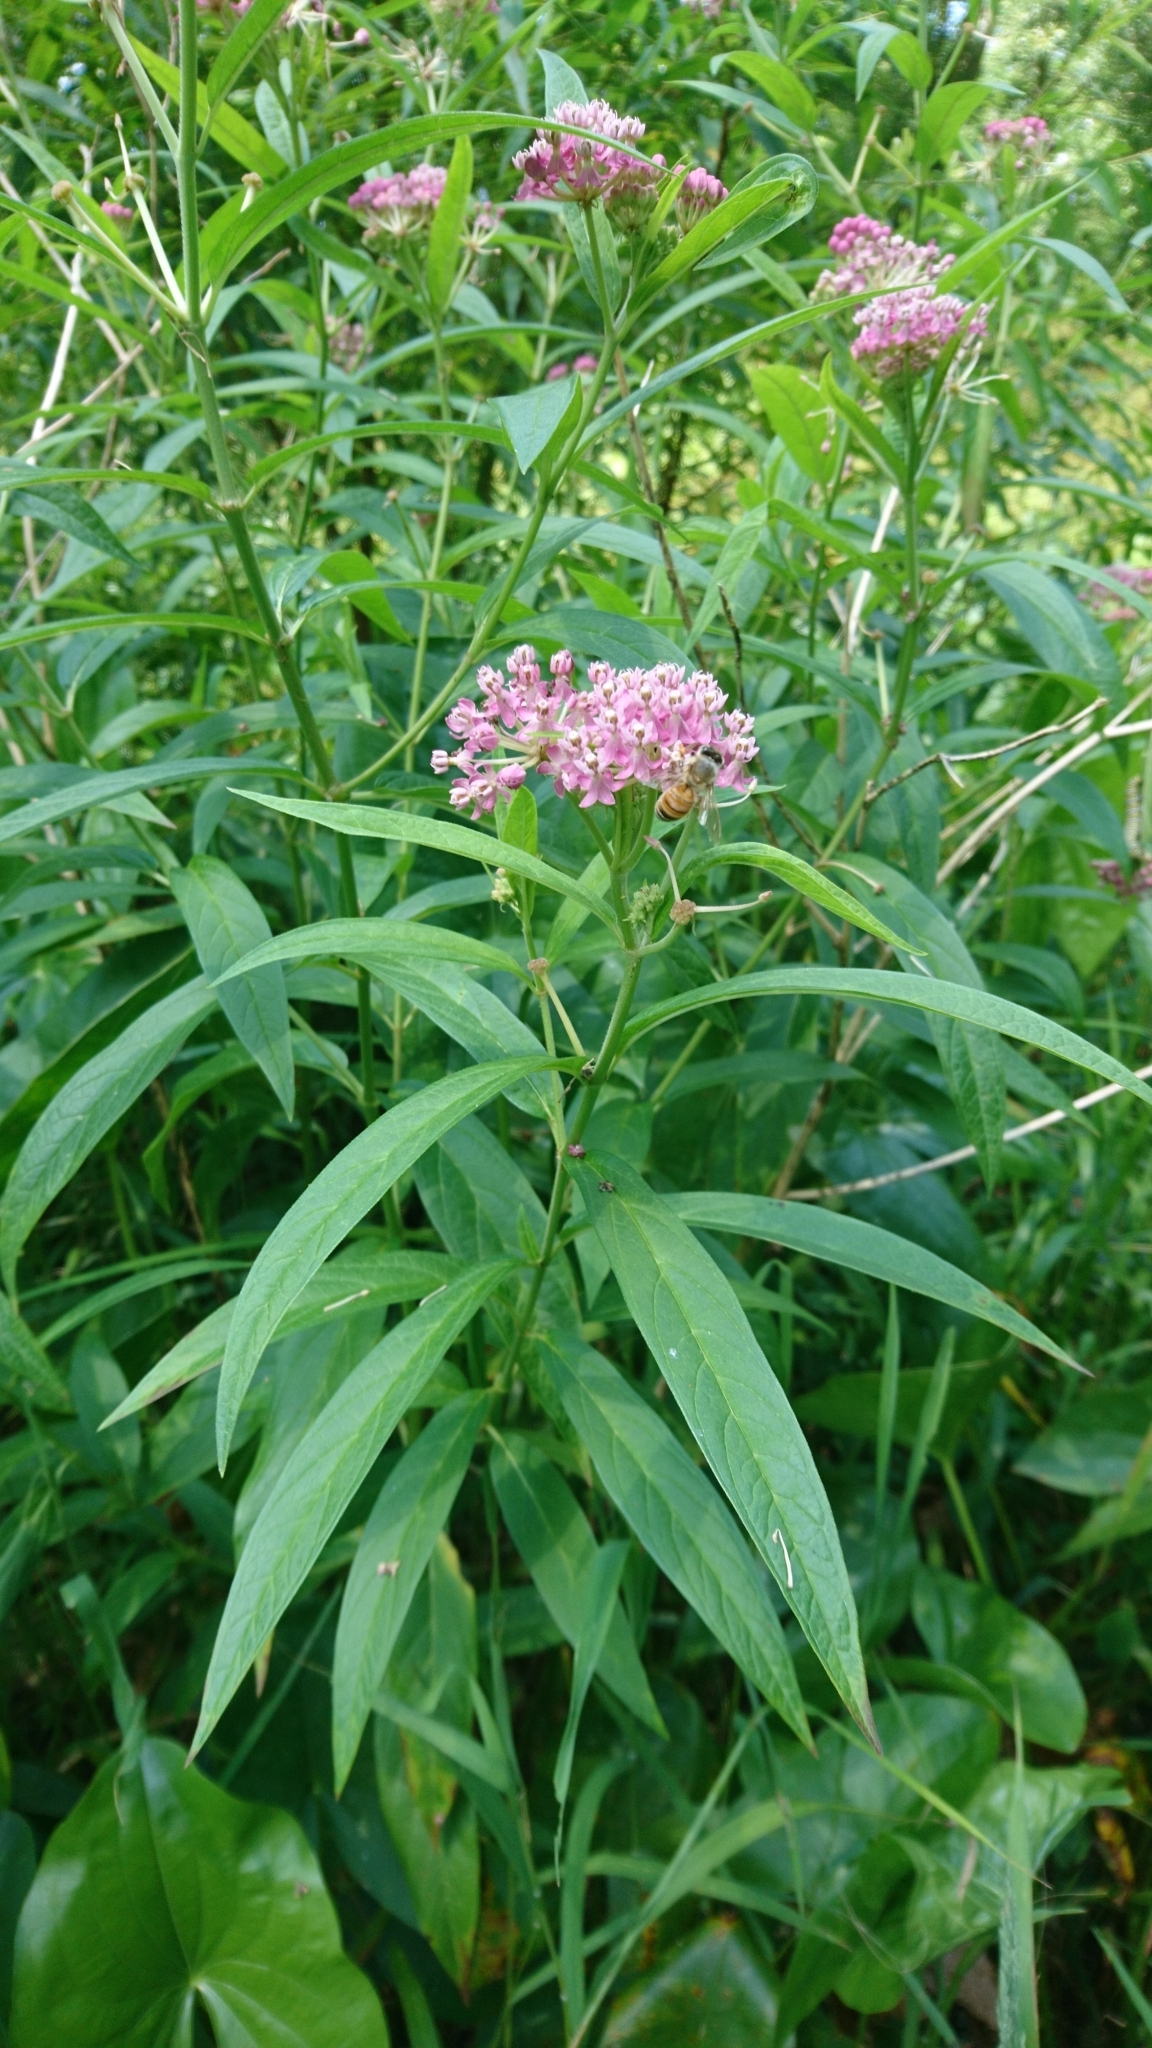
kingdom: Plantae
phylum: Tracheophyta
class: Magnoliopsida
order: Gentianales
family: Apocynaceae
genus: Asclepias
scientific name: Asclepias incarnata
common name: Swamp milkweed
